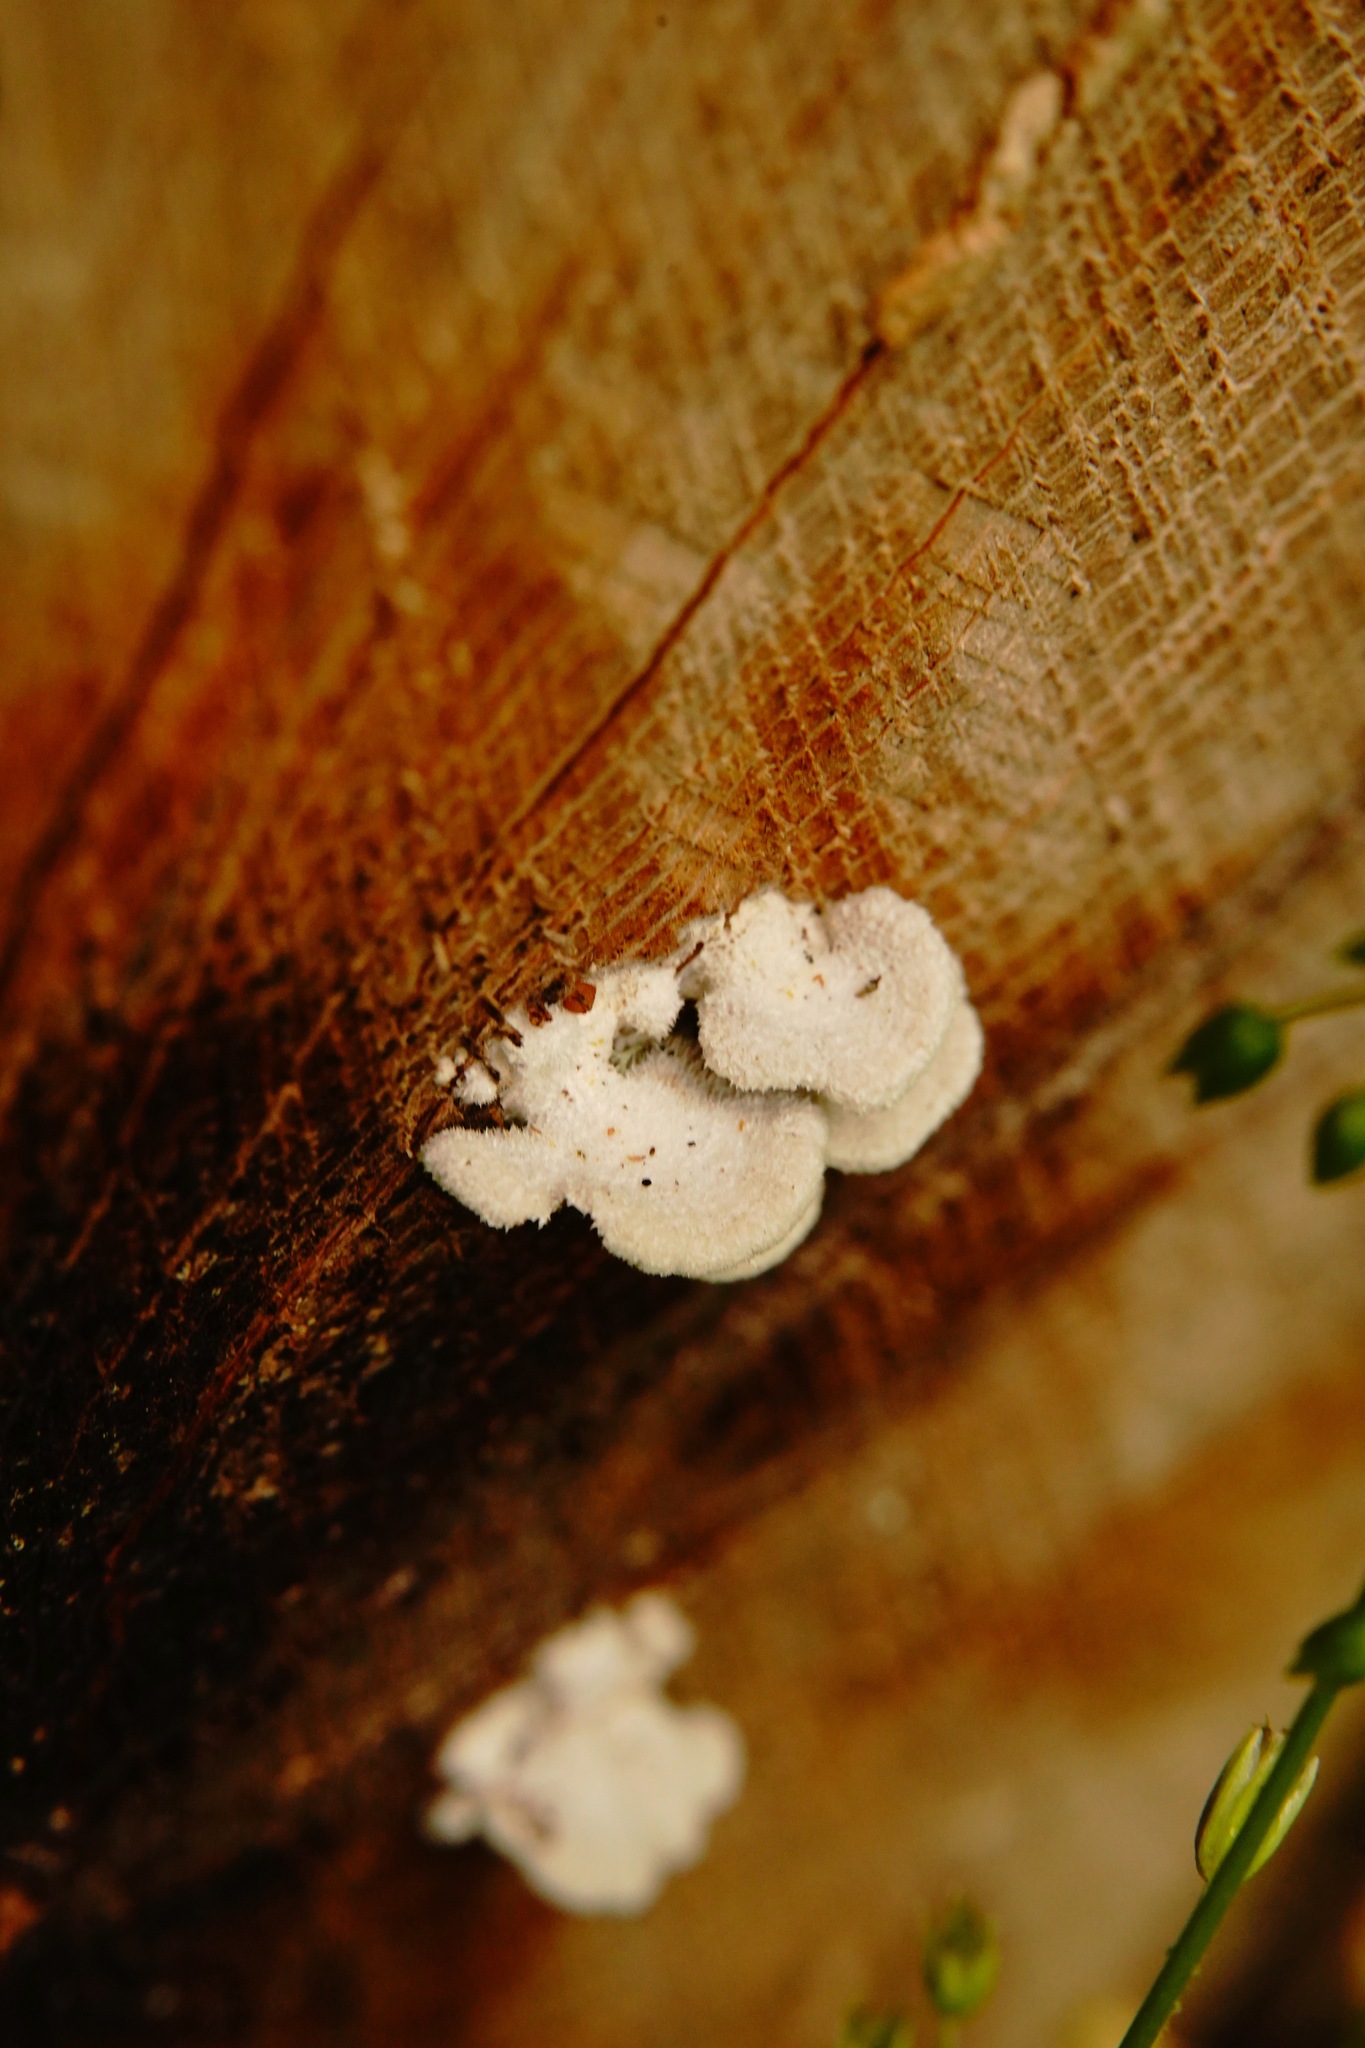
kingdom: Fungi
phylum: Basidiomycota
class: Agaricomycetes
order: Agaricales
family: Schizophyllaceae
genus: Schizophyllum
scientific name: Schizophyllum commune
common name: Common porecrust
